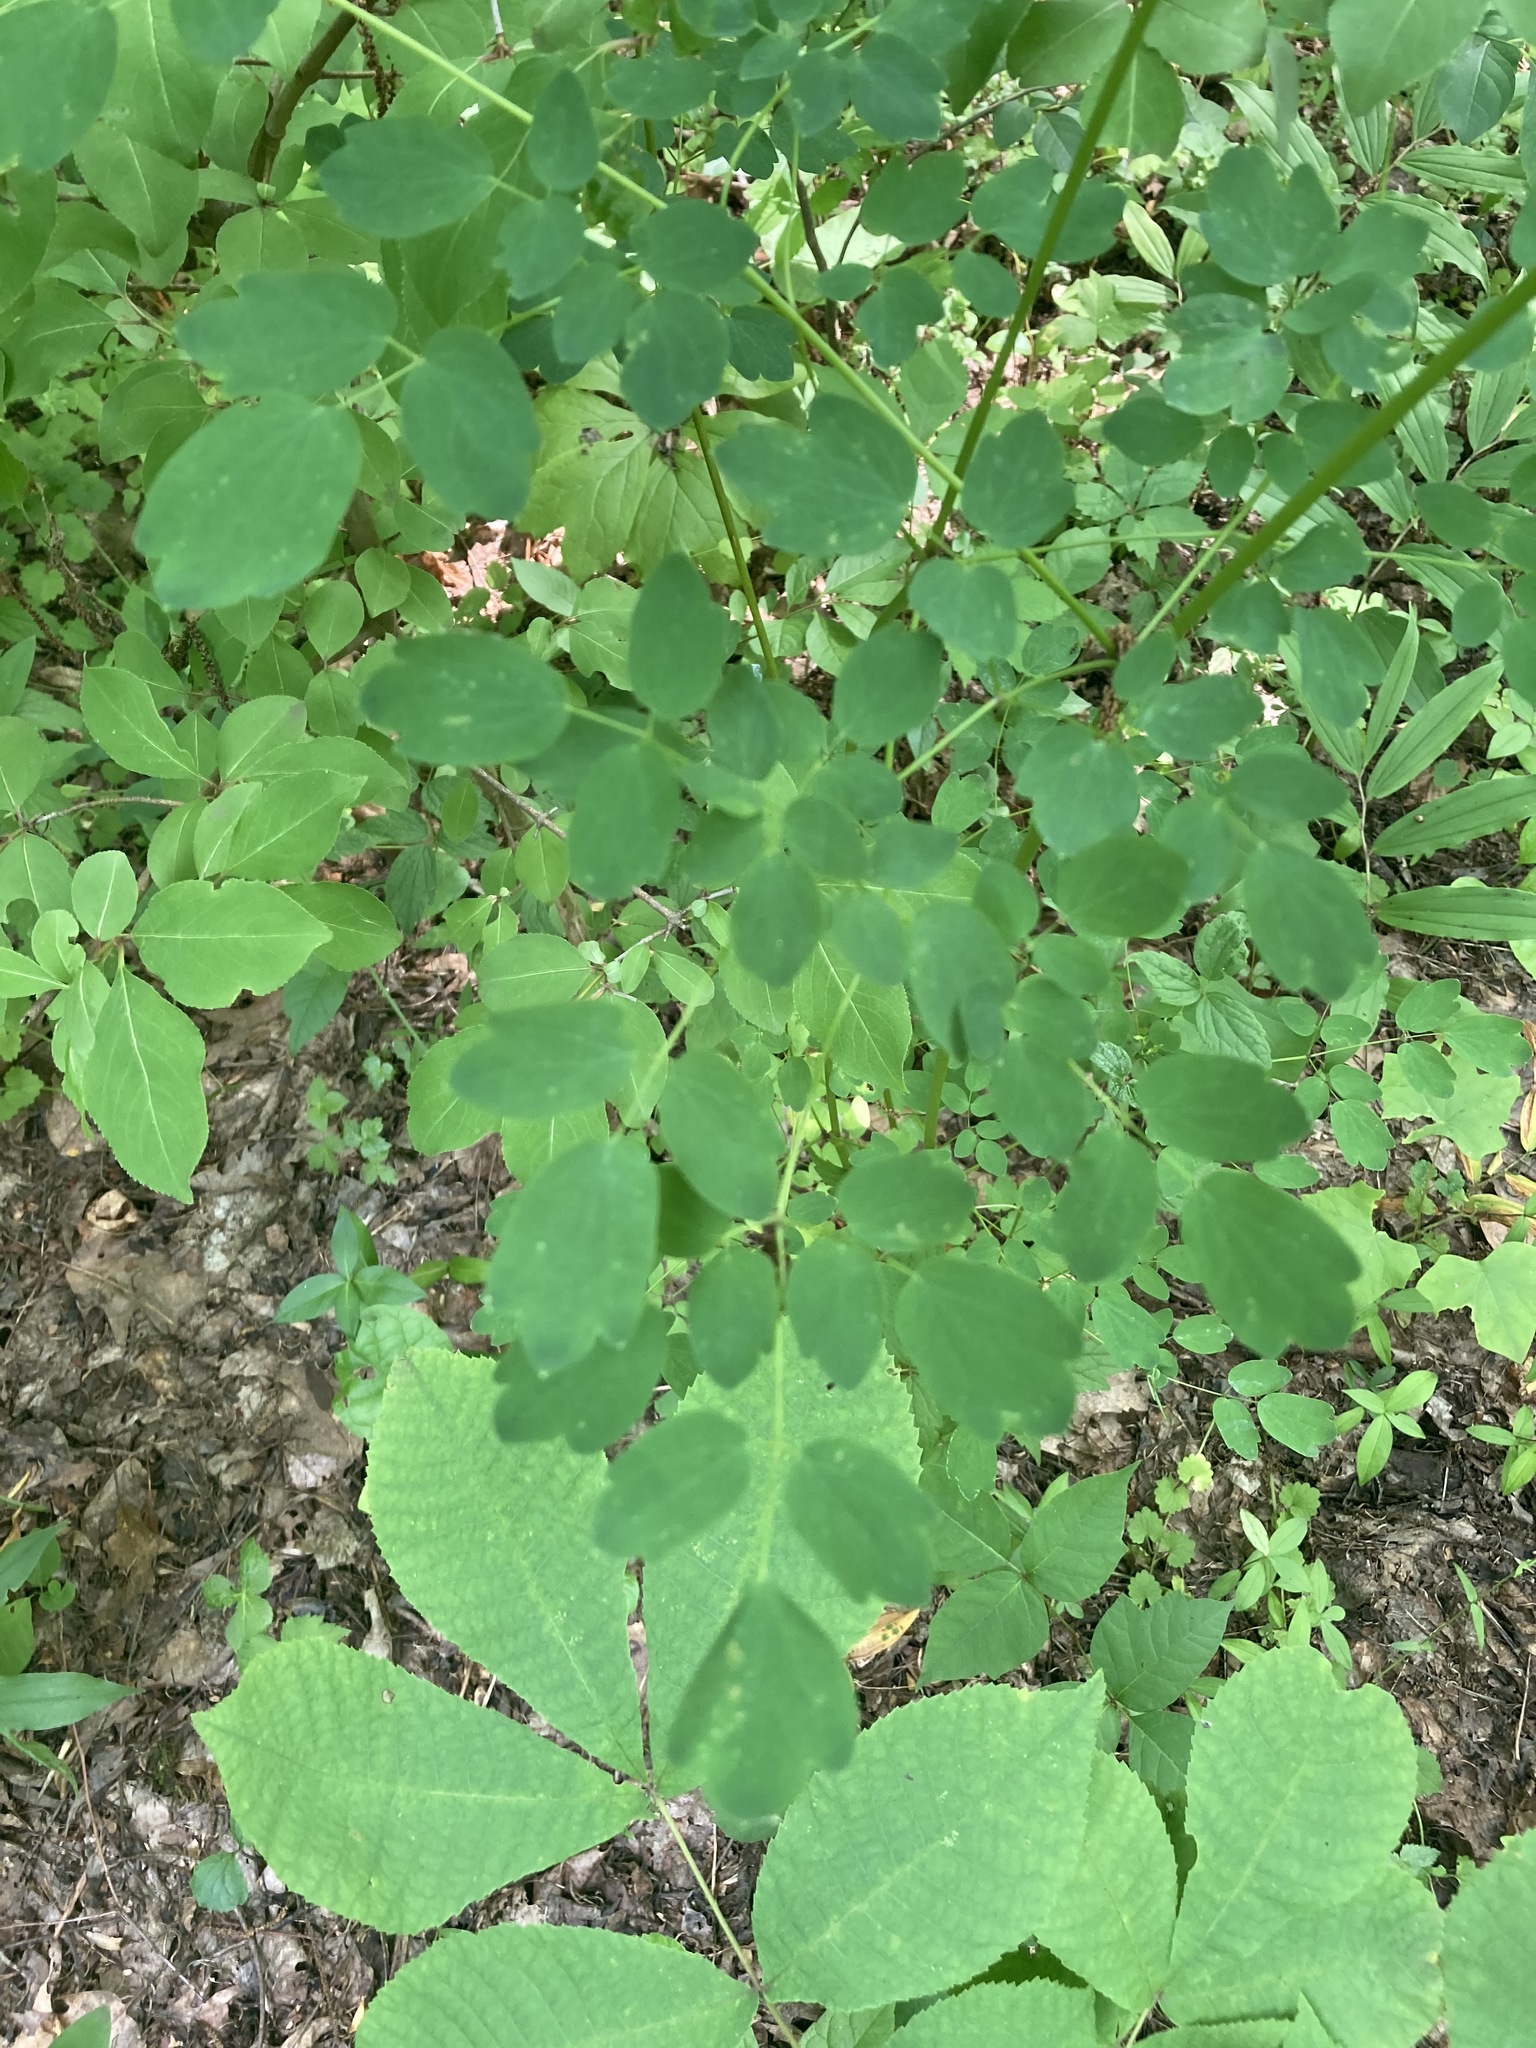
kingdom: Plantae
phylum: Tracheophyta
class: Magnoliopsida
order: Ranunculales
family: Ranunculaceae
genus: Thalictrum
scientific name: Thalictrum pubescens
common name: King-of-the-meadow
